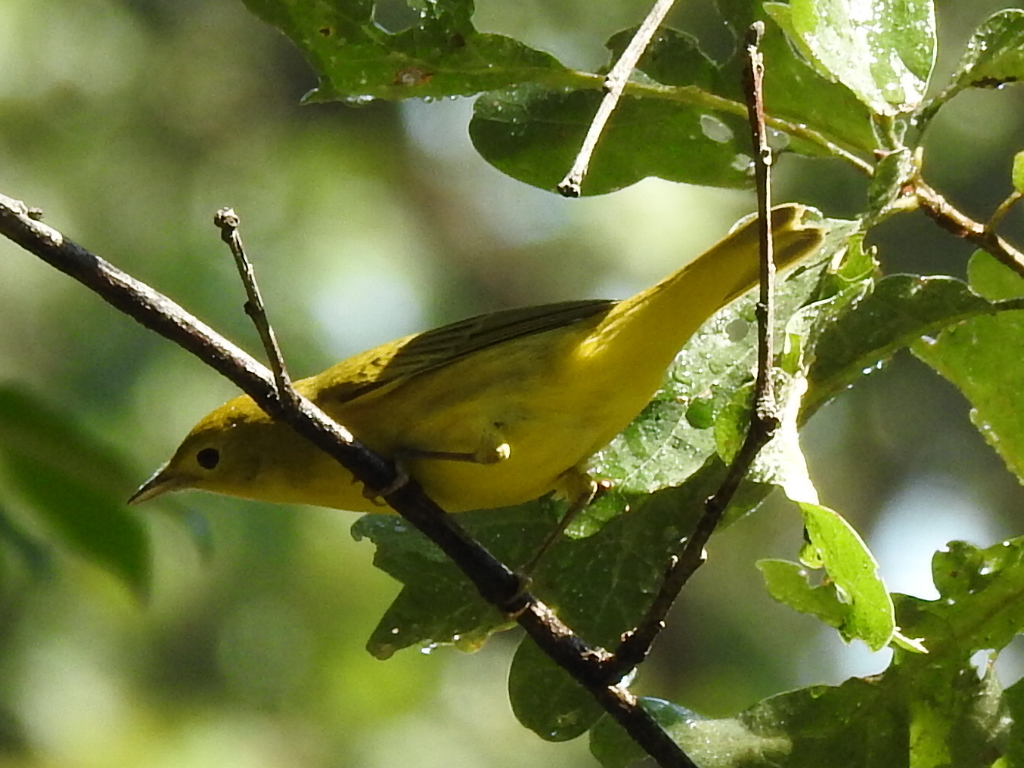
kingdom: Animalia
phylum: Chordata
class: Aves
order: Passeriformes
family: Parulidae
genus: Setophaga
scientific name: Setophaga petechia
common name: Yellow warbler
